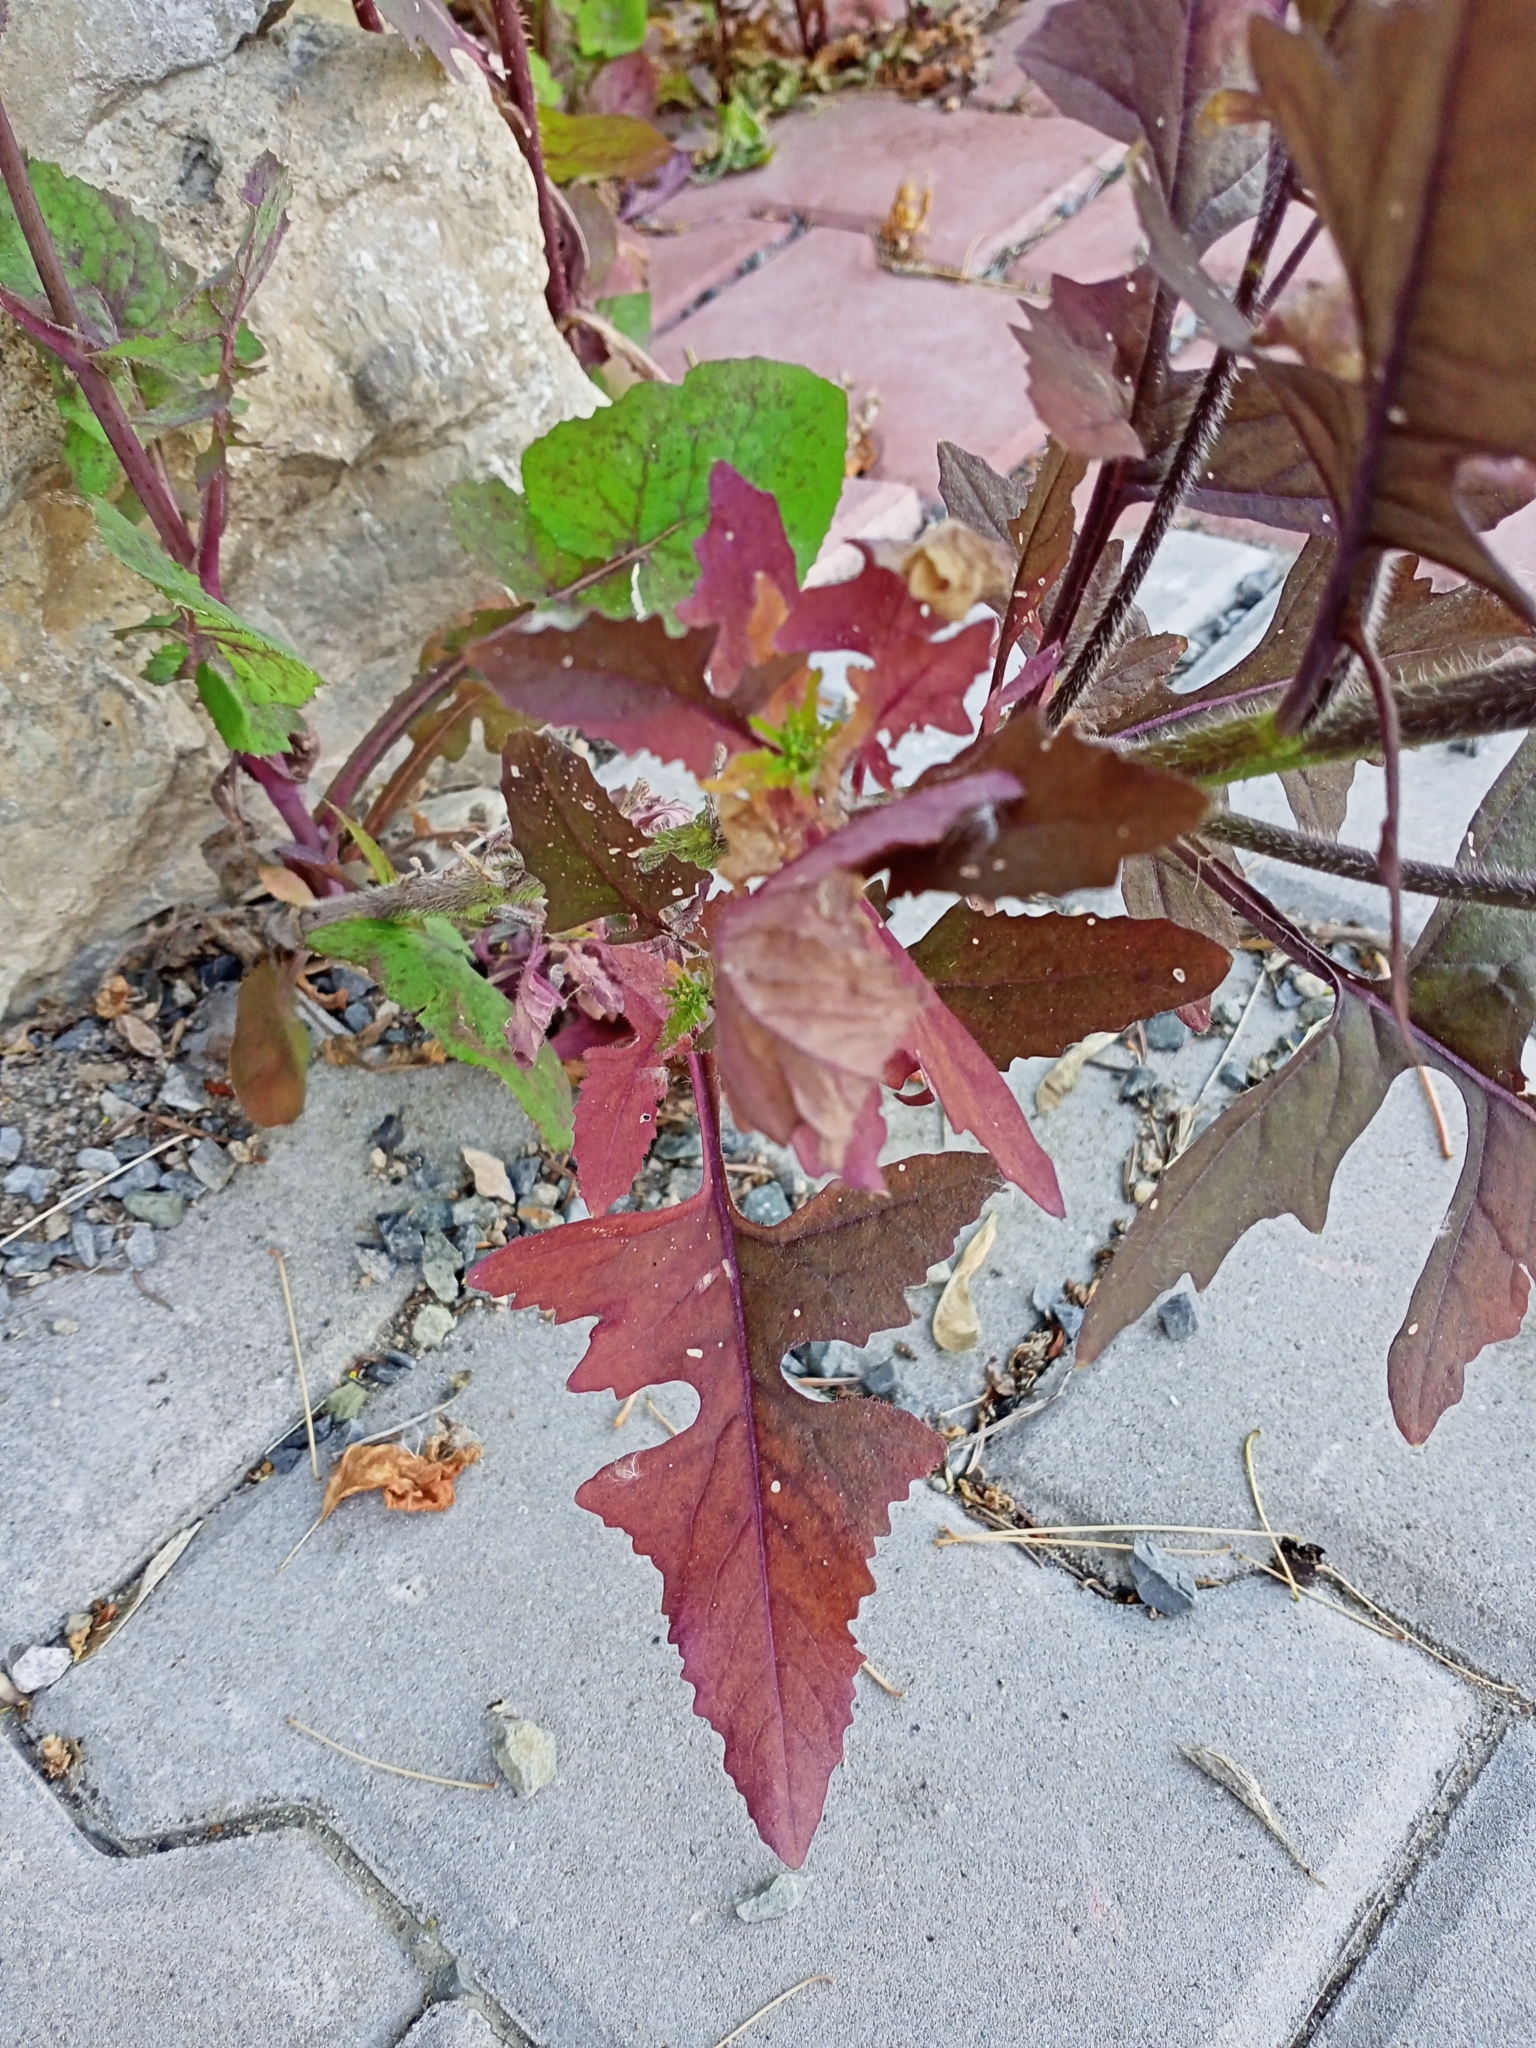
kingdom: Plantae
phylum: Tracheophyta
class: Magnoliopsida
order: Brassicales
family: Brassicaceae
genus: Sisymbrium
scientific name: Sisymbrium loeselii
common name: False london-rocket
